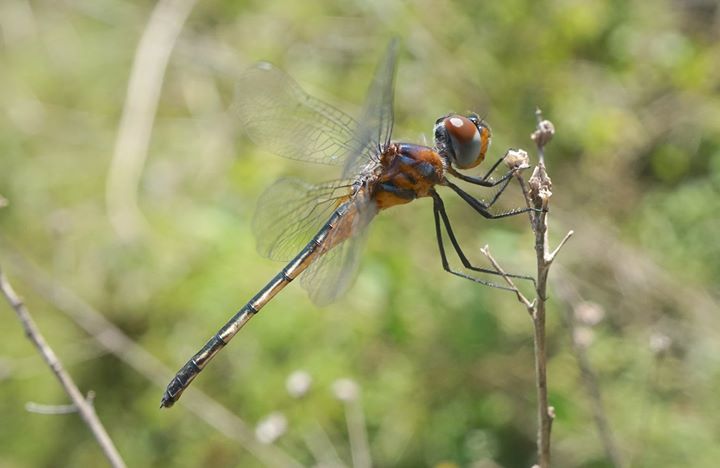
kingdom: Animalia
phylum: Arthropoda
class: Insecta
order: Odonata
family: Libellulidae
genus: Idiataphe
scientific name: Idiataphe cubensis
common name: Metallic pennant
